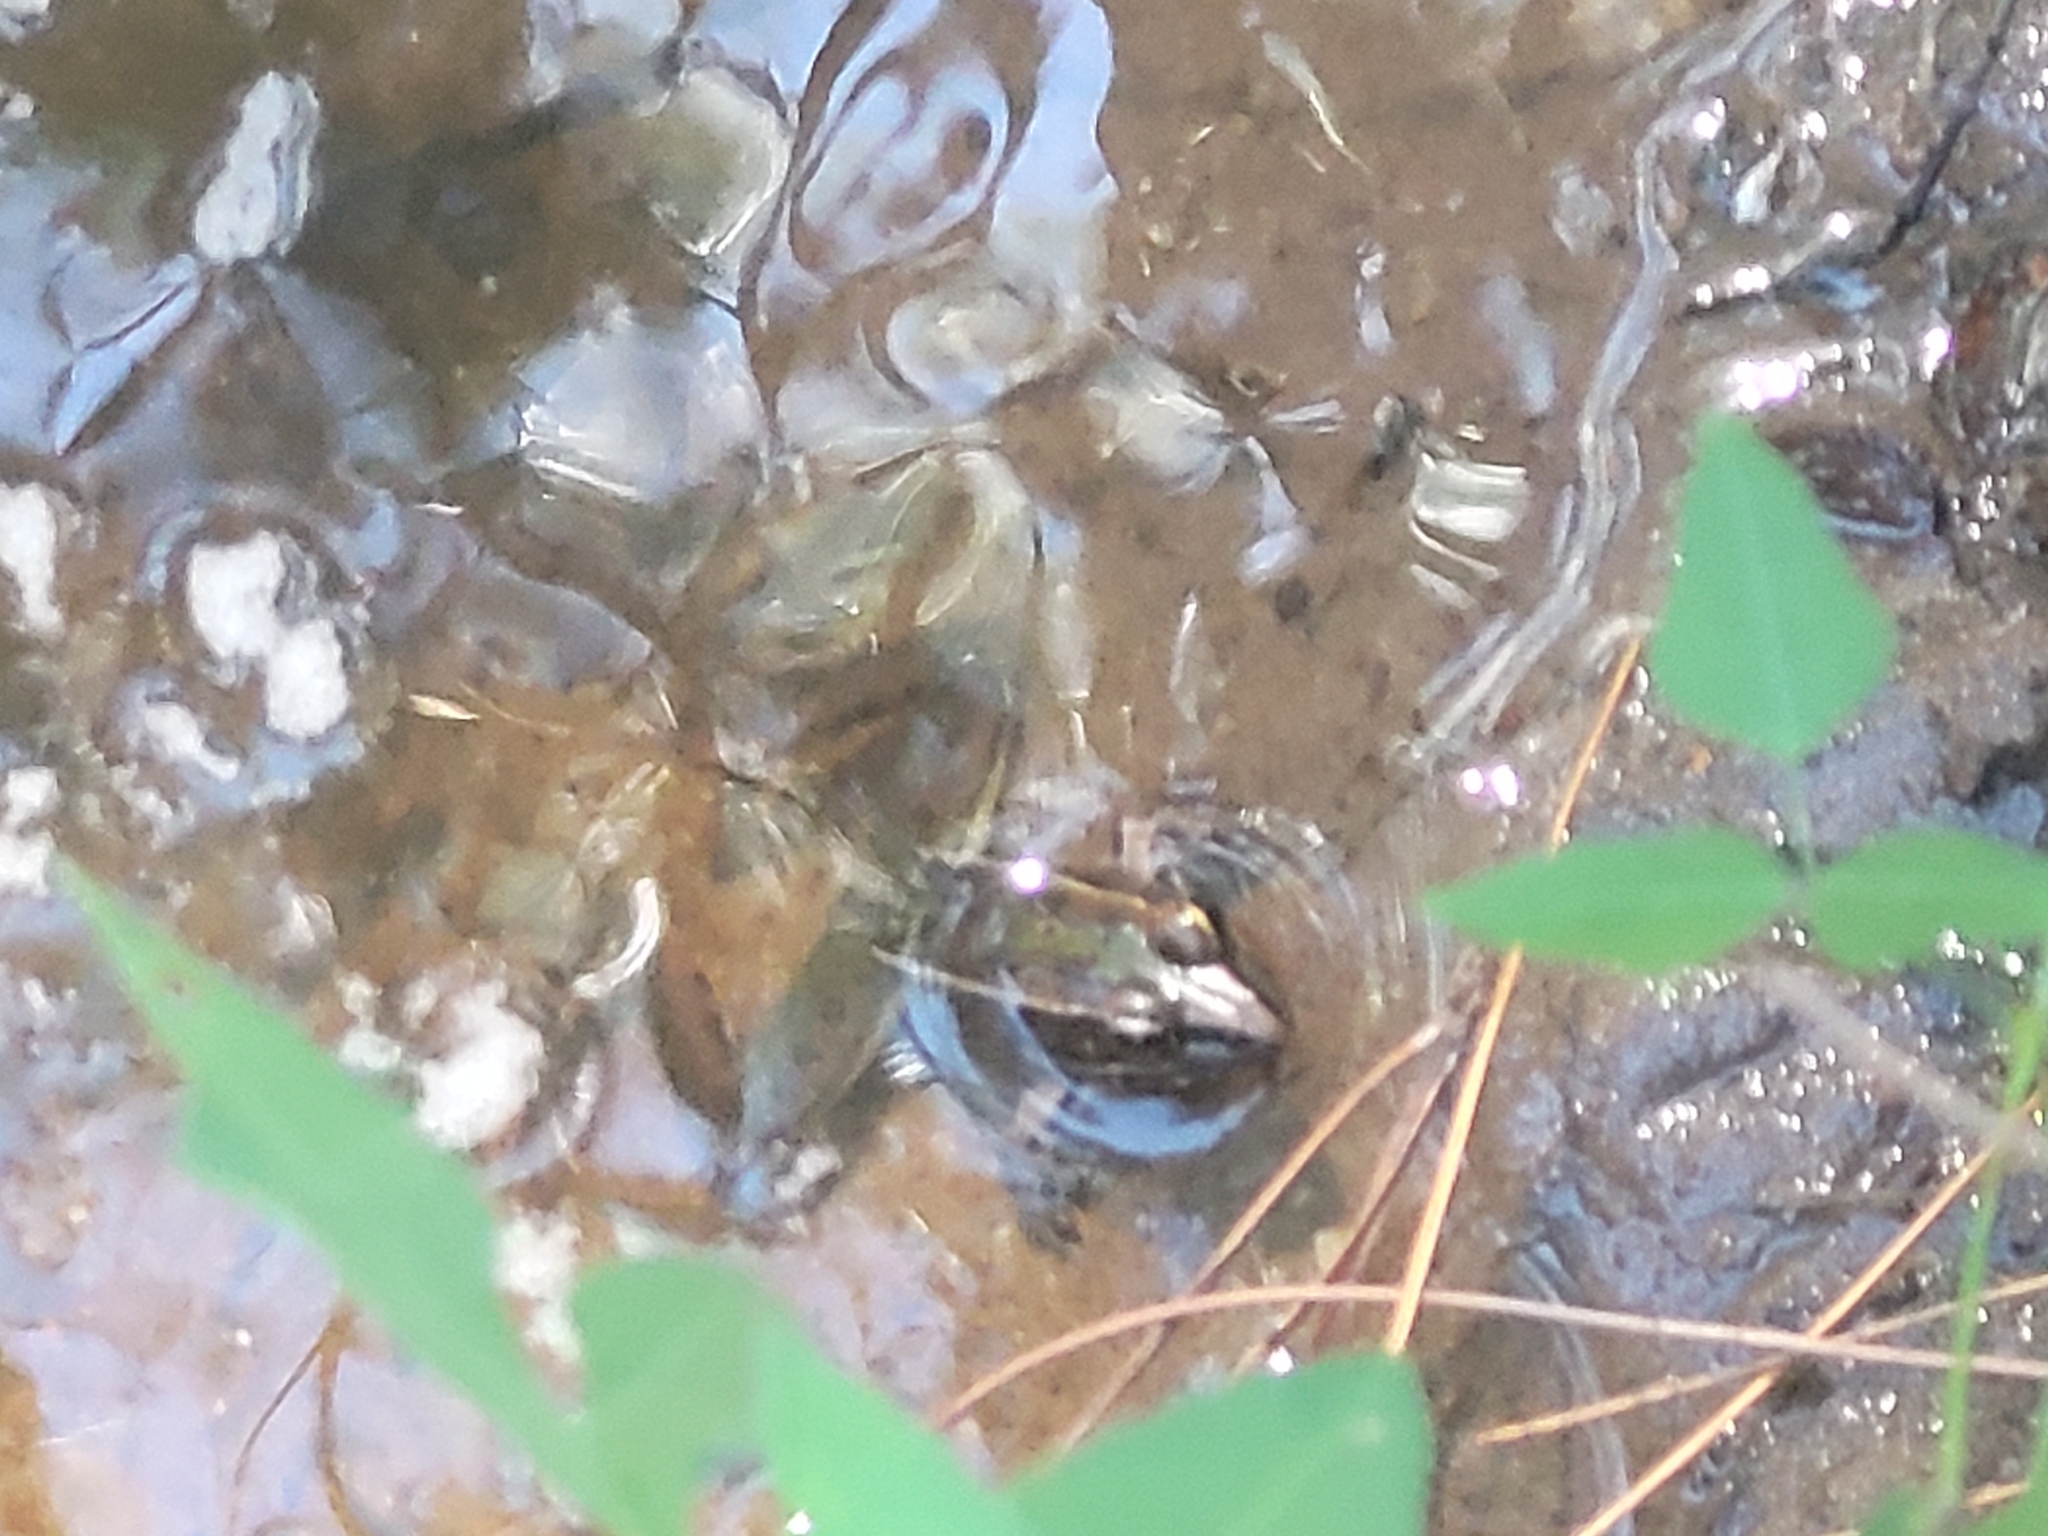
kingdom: Animalia
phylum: Chordata
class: Amphibia
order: Anura
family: Ranidae
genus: Lithobates
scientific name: Lithobates sphenocephalus
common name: Southern leopard frog
